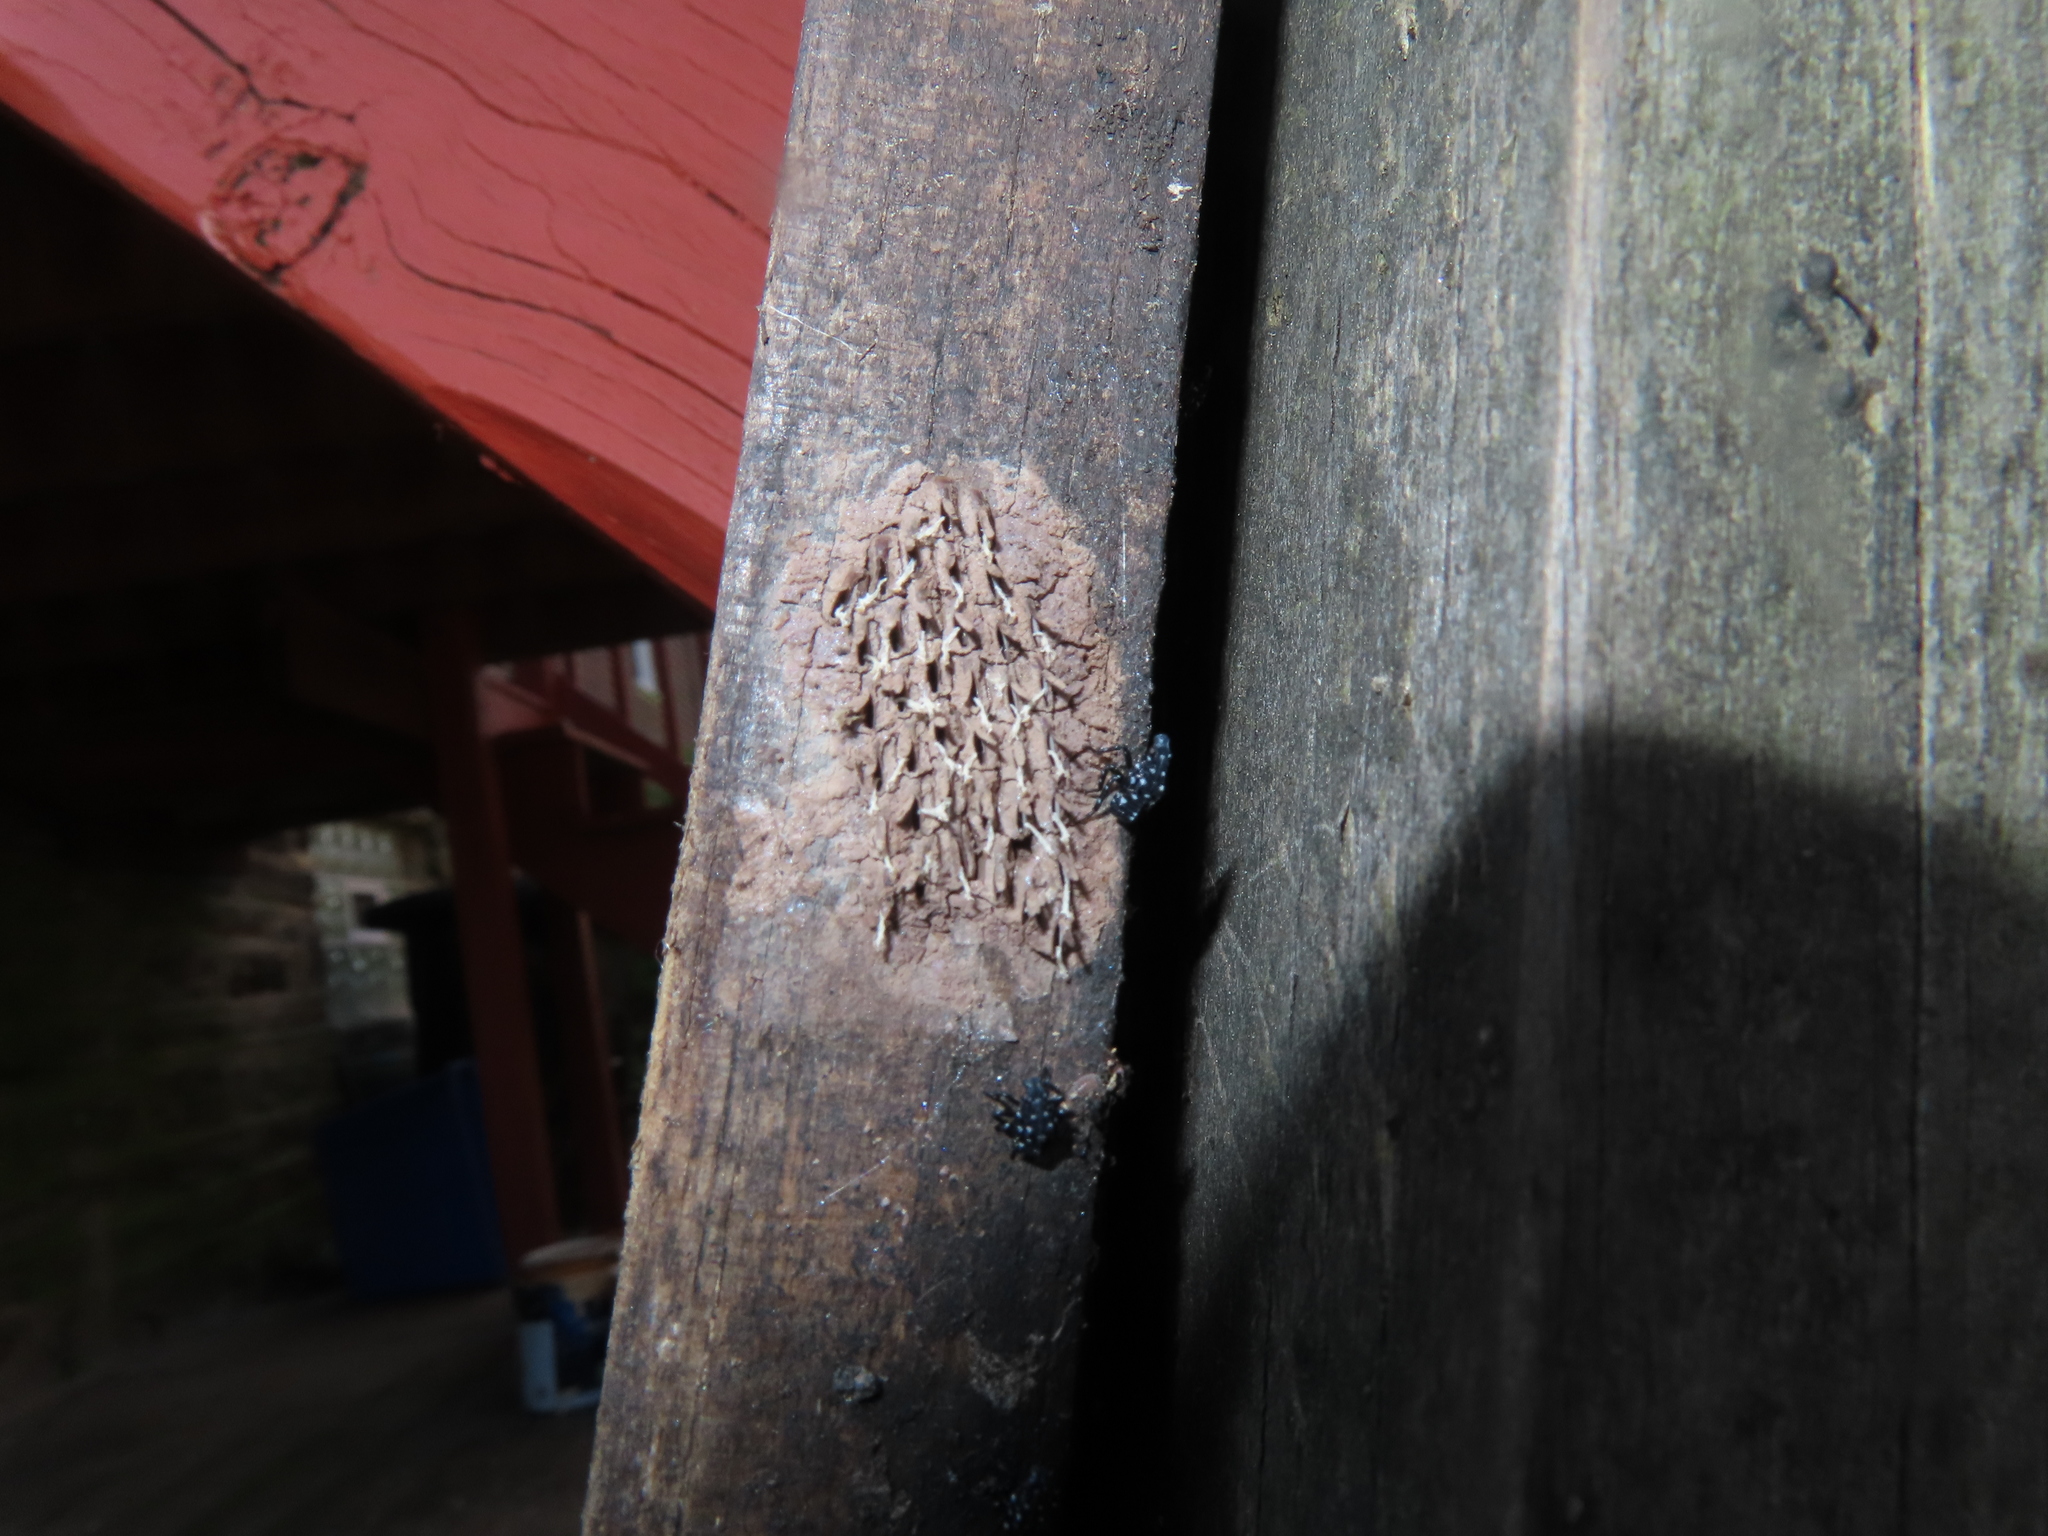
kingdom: Animalia
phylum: Arthropoda
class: Insecta
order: Hemiptera
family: Fulgoridae
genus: Lycorma
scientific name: Lycorma delicatula
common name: Spotted lanternfly
